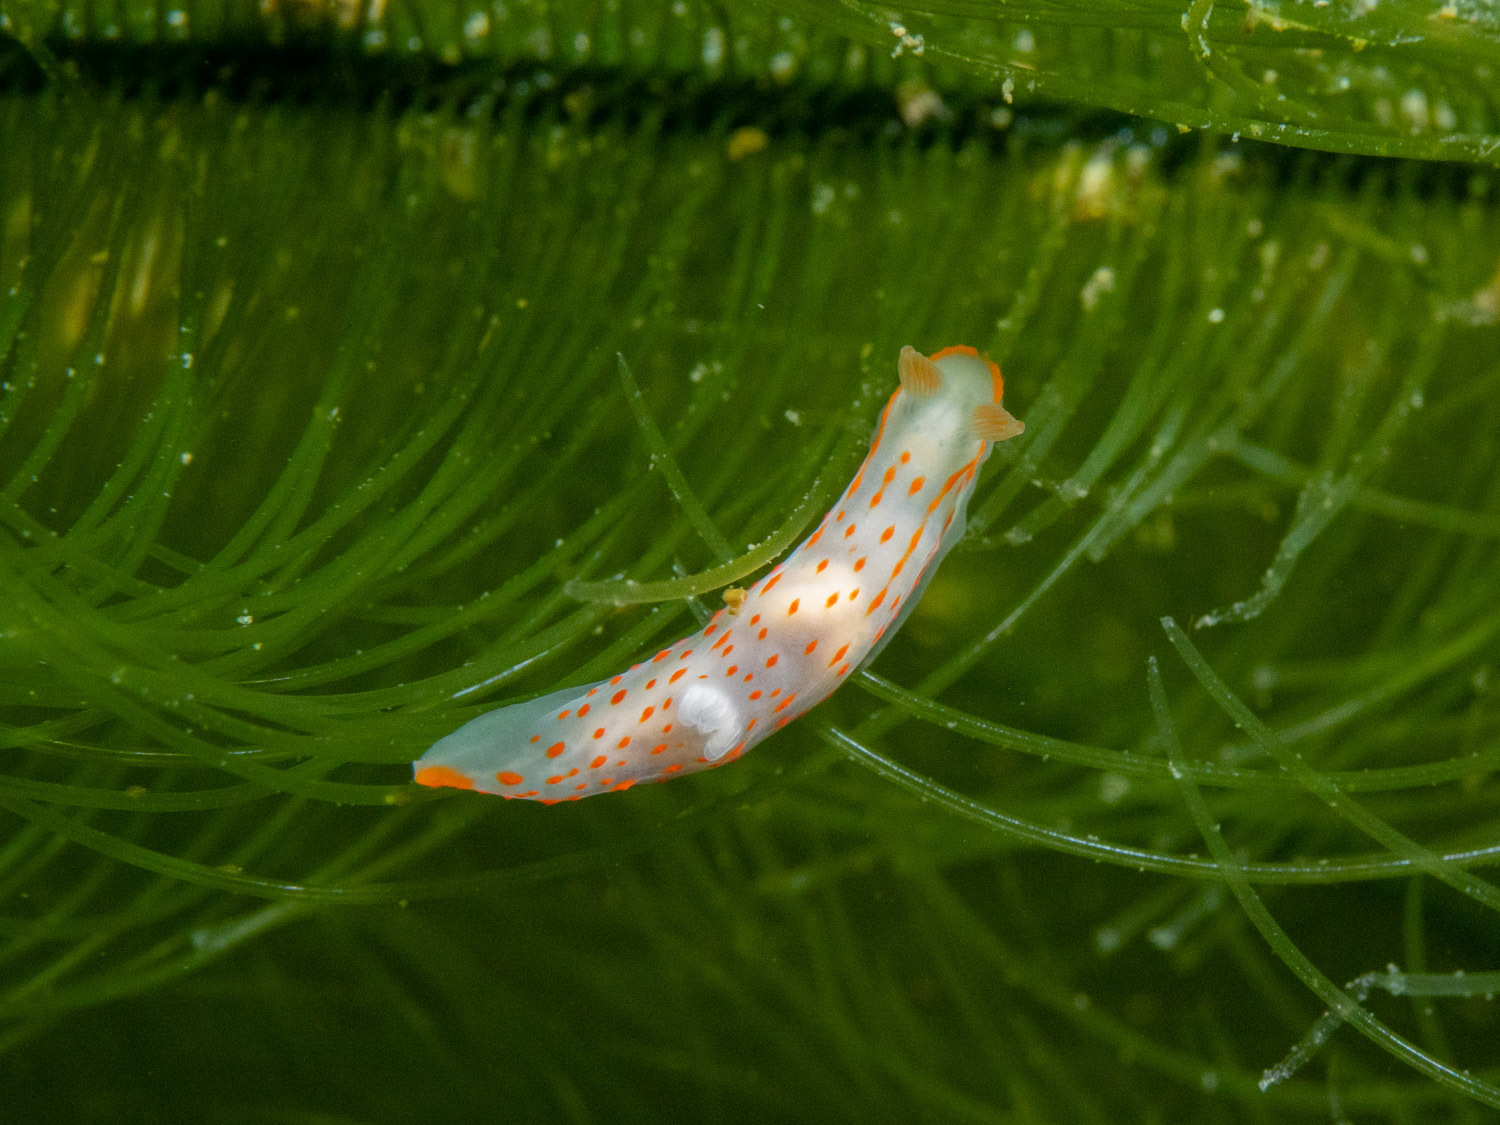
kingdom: Animalia
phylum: Mollusca
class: Gastropoda
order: Nudibranchia
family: Polyceridae
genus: Gymnodoris
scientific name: Gymnodoris alba
